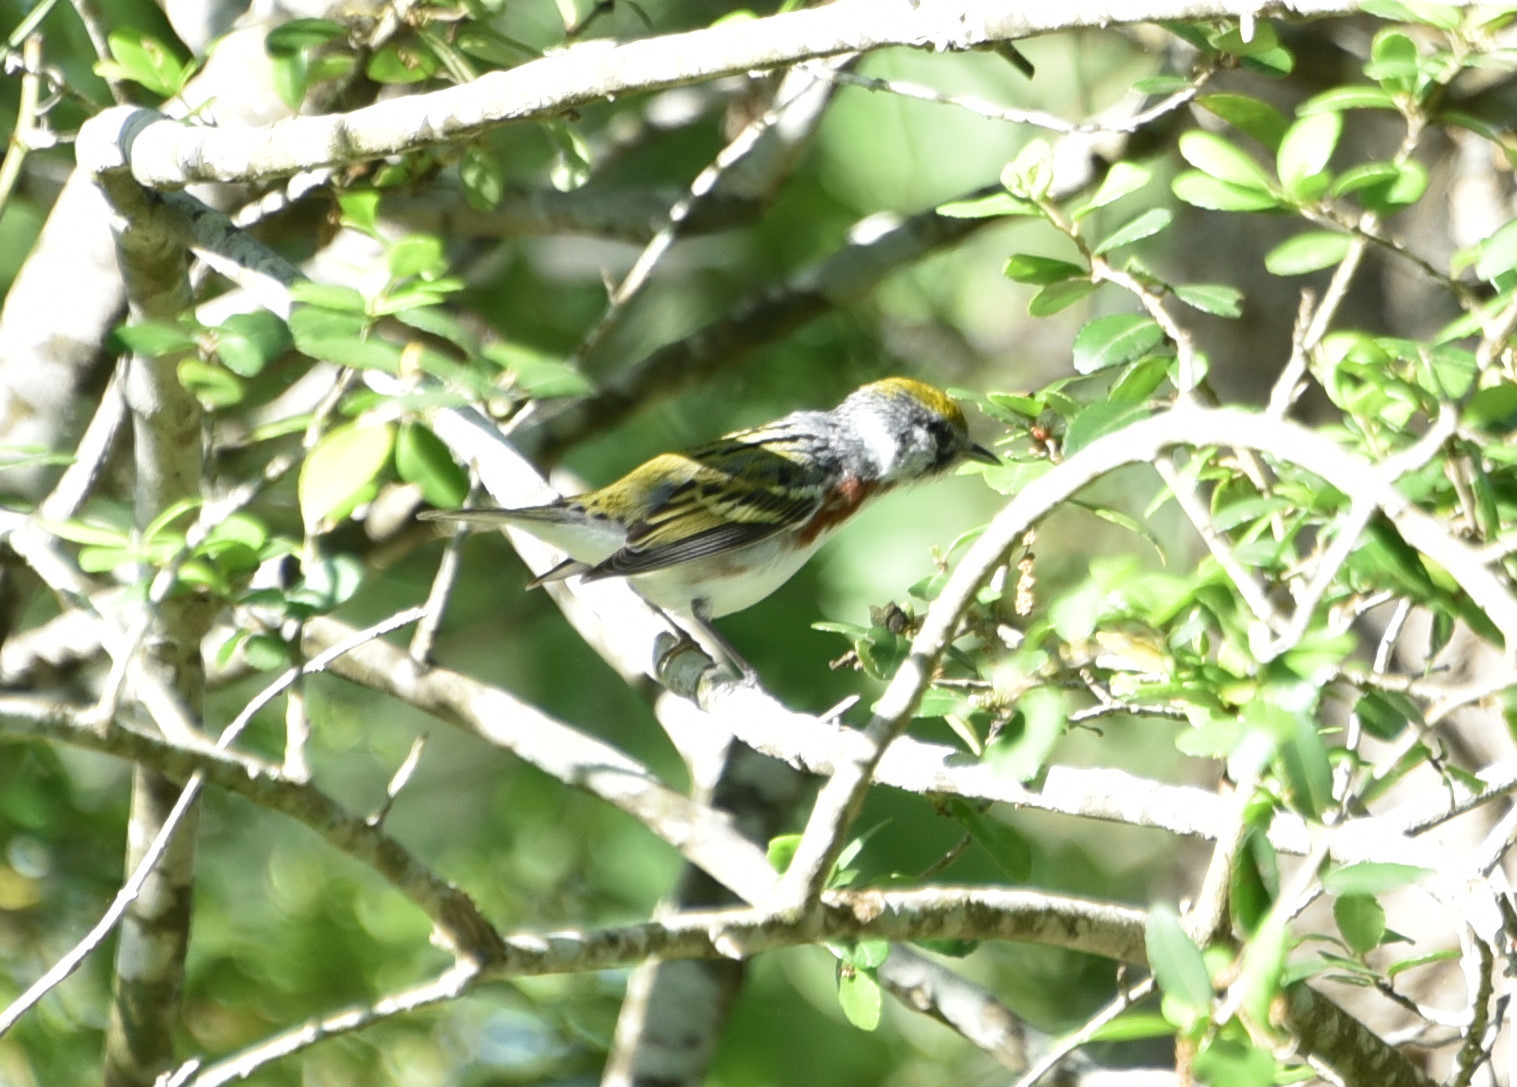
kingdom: Animalia
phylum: Chordata
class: Aves
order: Passeriformes
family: Parulidae
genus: Setophaga
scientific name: Setophaga pensylvanica
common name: Chestnut-sided warbler
